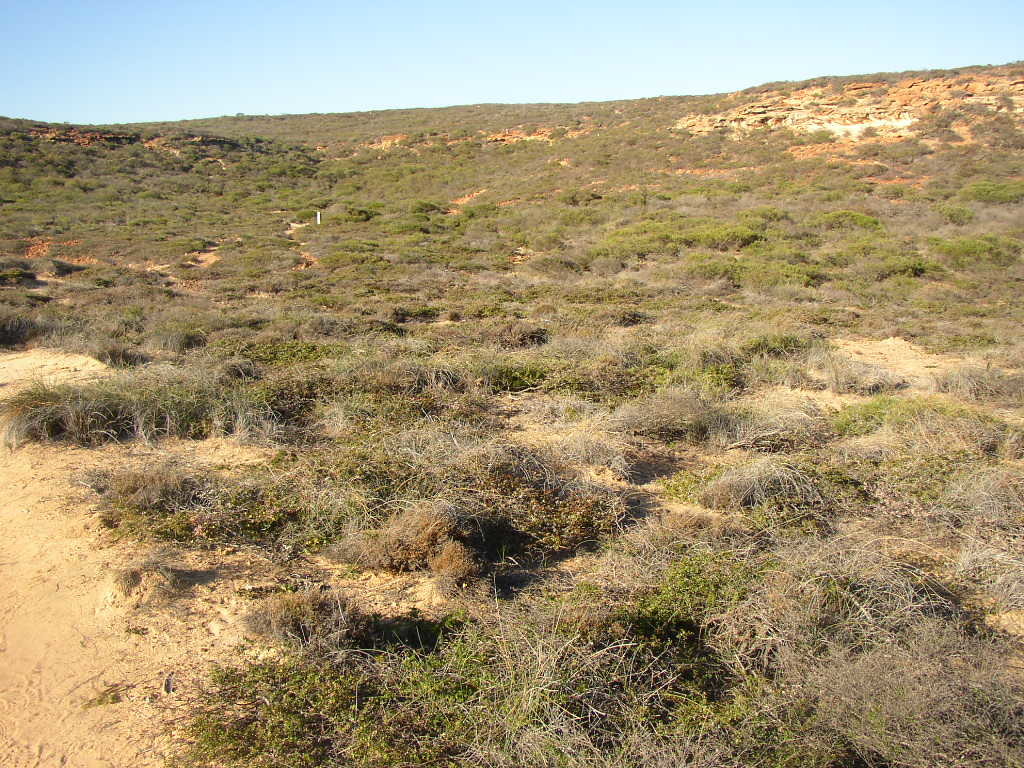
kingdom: Plantae
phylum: Tracheophyta
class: Liliopsida
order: Poales
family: Ecdeiocoleaceae
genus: Ecdeiocolea
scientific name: Ecdeiocolea monostachya
